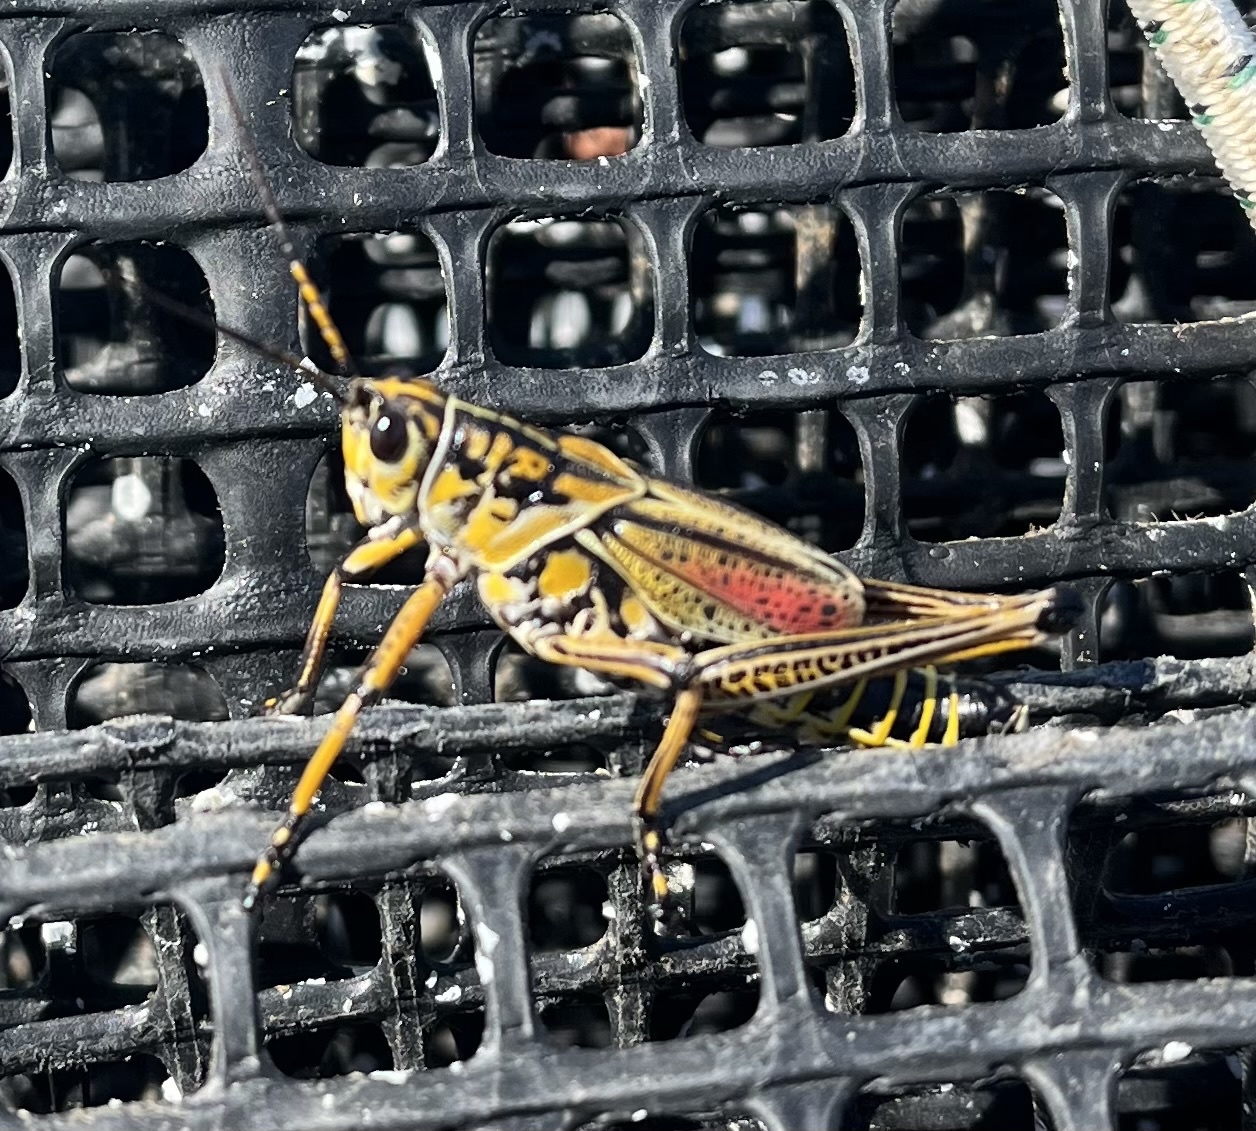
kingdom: Animalia
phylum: Arthropoda
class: Insecta
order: Orthoptera
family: Romaleidae
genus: Romalea
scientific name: Romalea microptera
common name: Eastern lubber grasshopper
